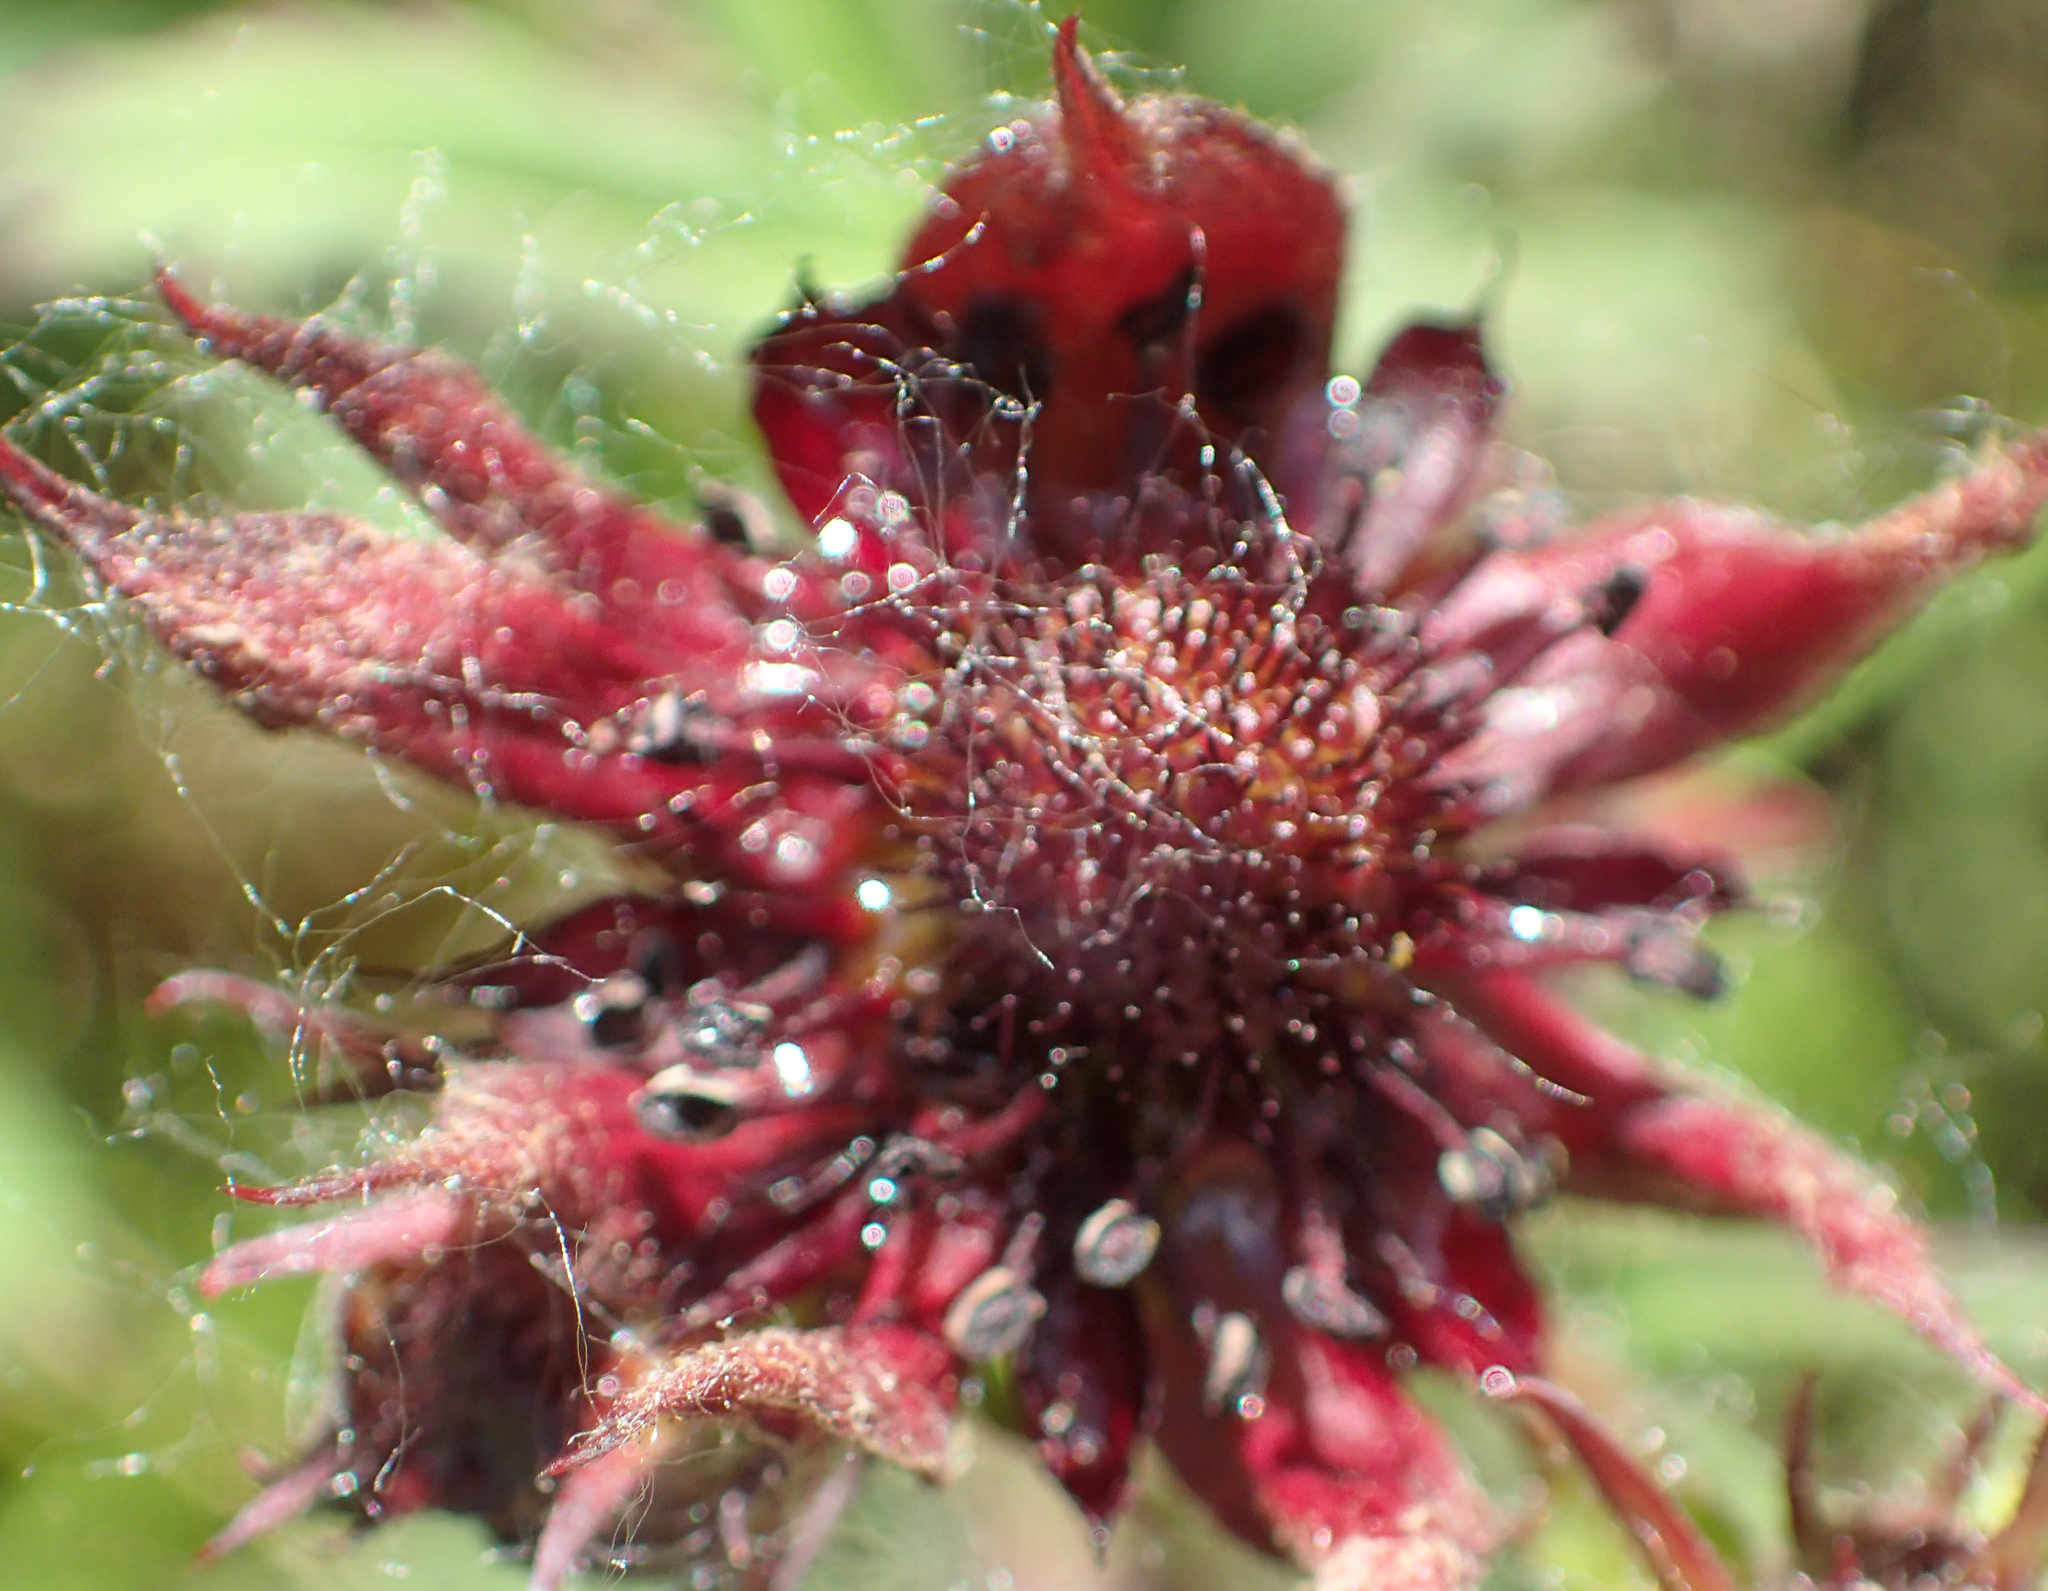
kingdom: Plantae
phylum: Tracheophyta
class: Magnoliopsida
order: Rosales
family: Rosaceae
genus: Comarum
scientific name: Comarum palustre
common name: Marsh cinquefoil
